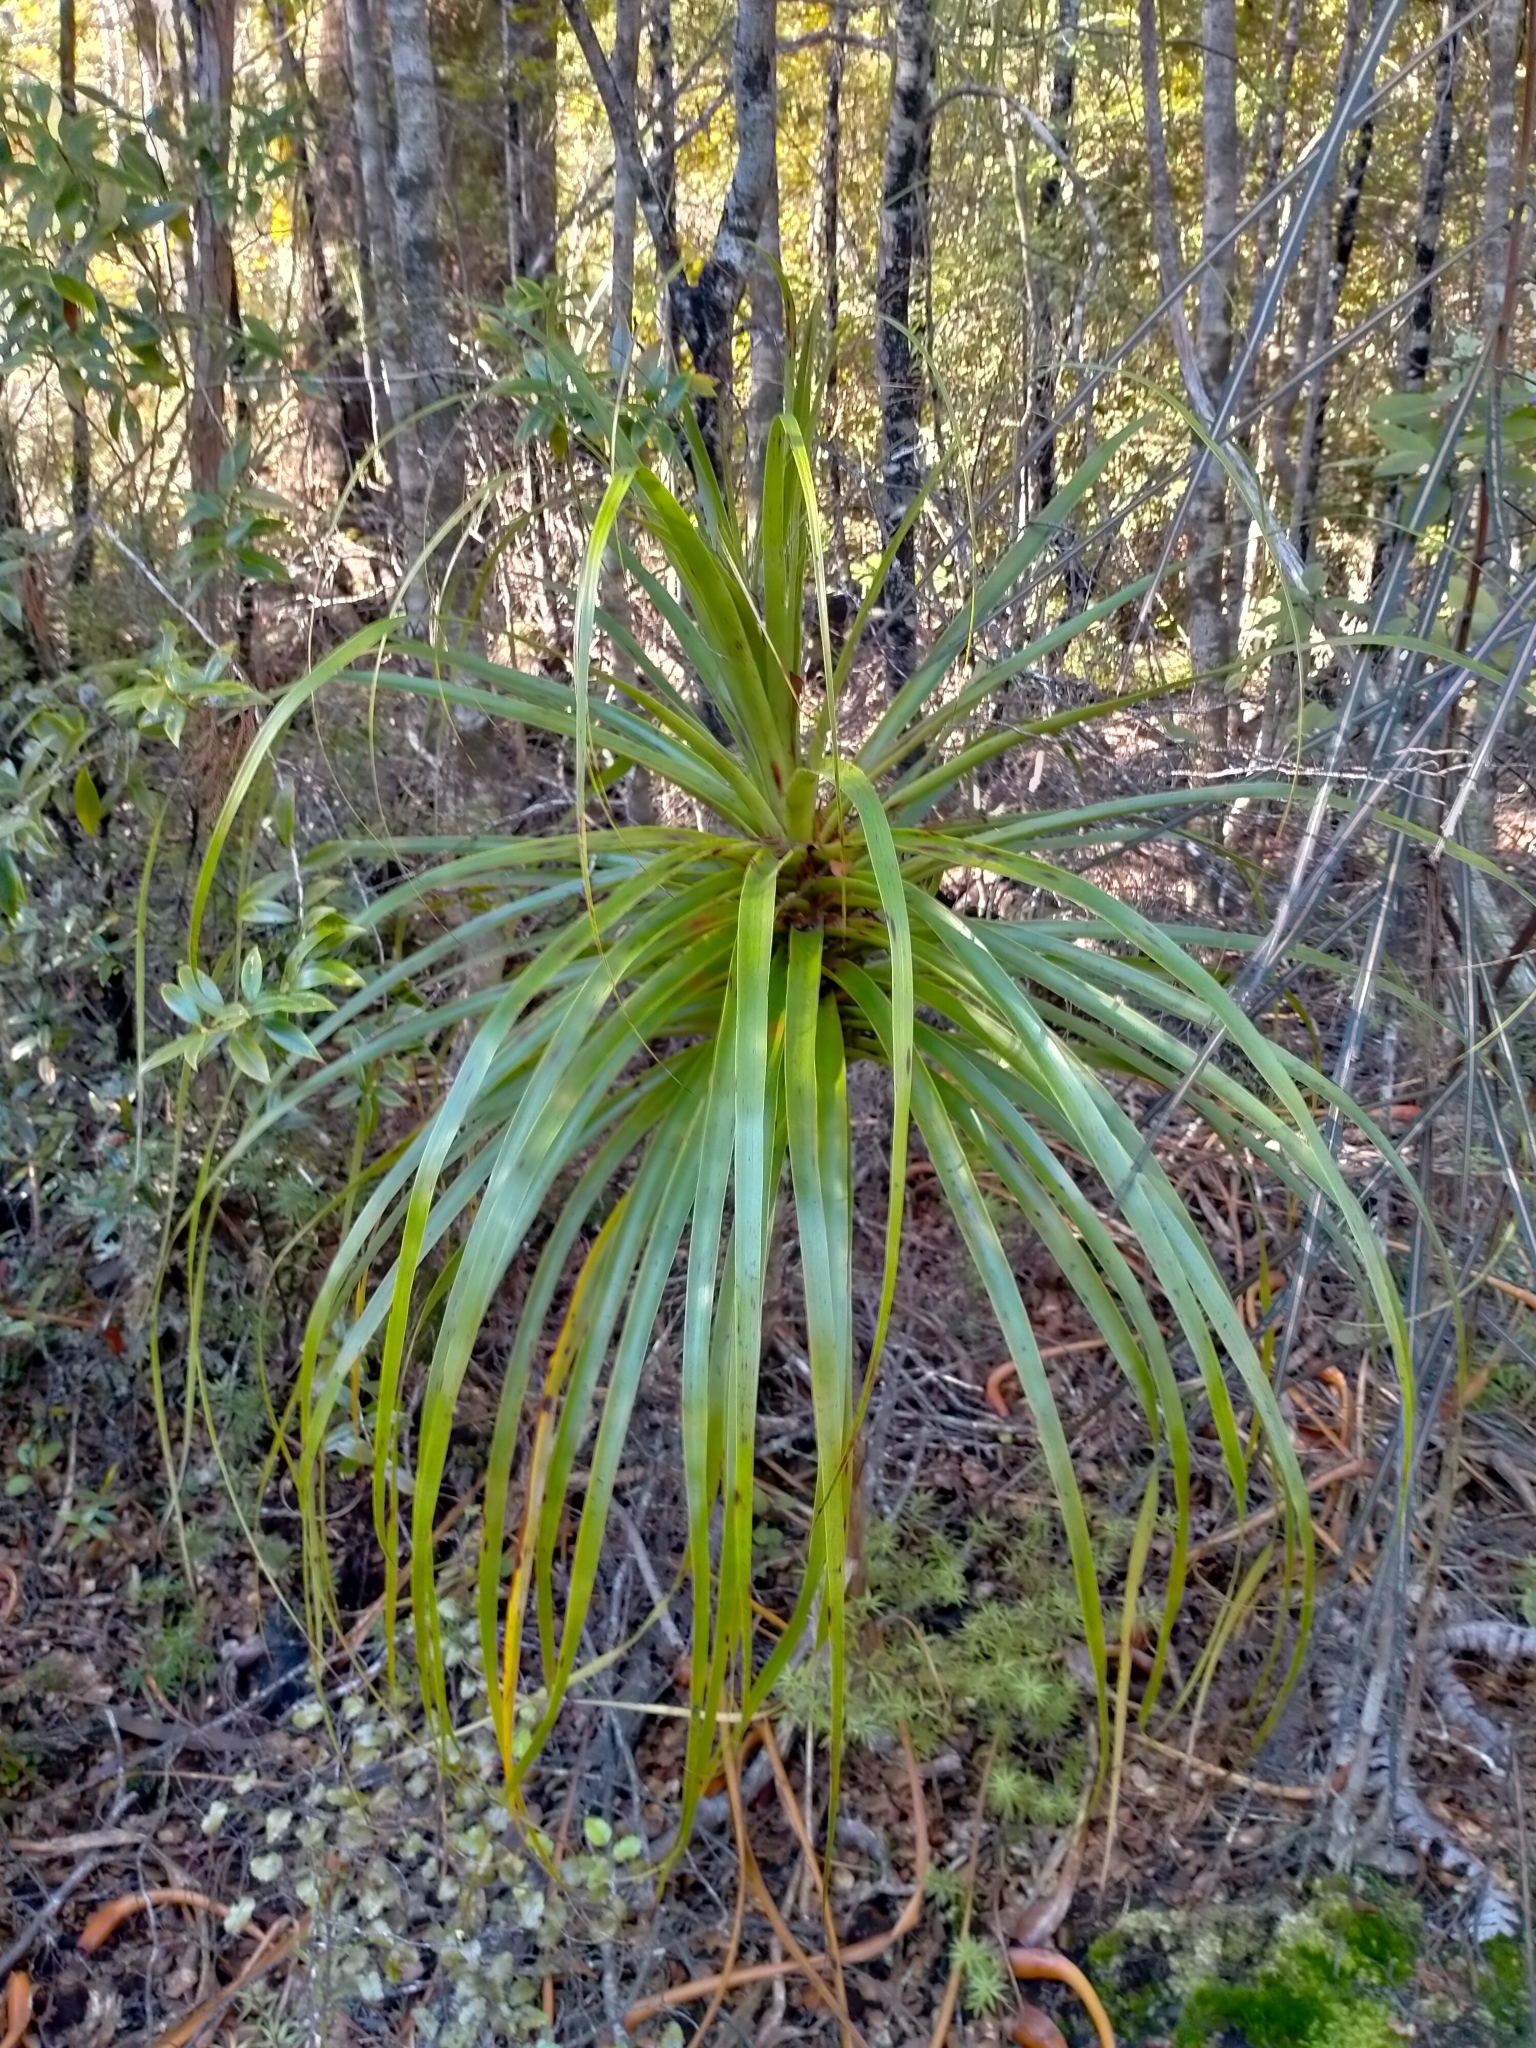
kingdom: Plantae
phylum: Tracheophyta
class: Magnoliopsida
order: Ericales
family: Ericaceae
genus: Dracophyllum
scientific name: Dracophyllum elegantissimum
